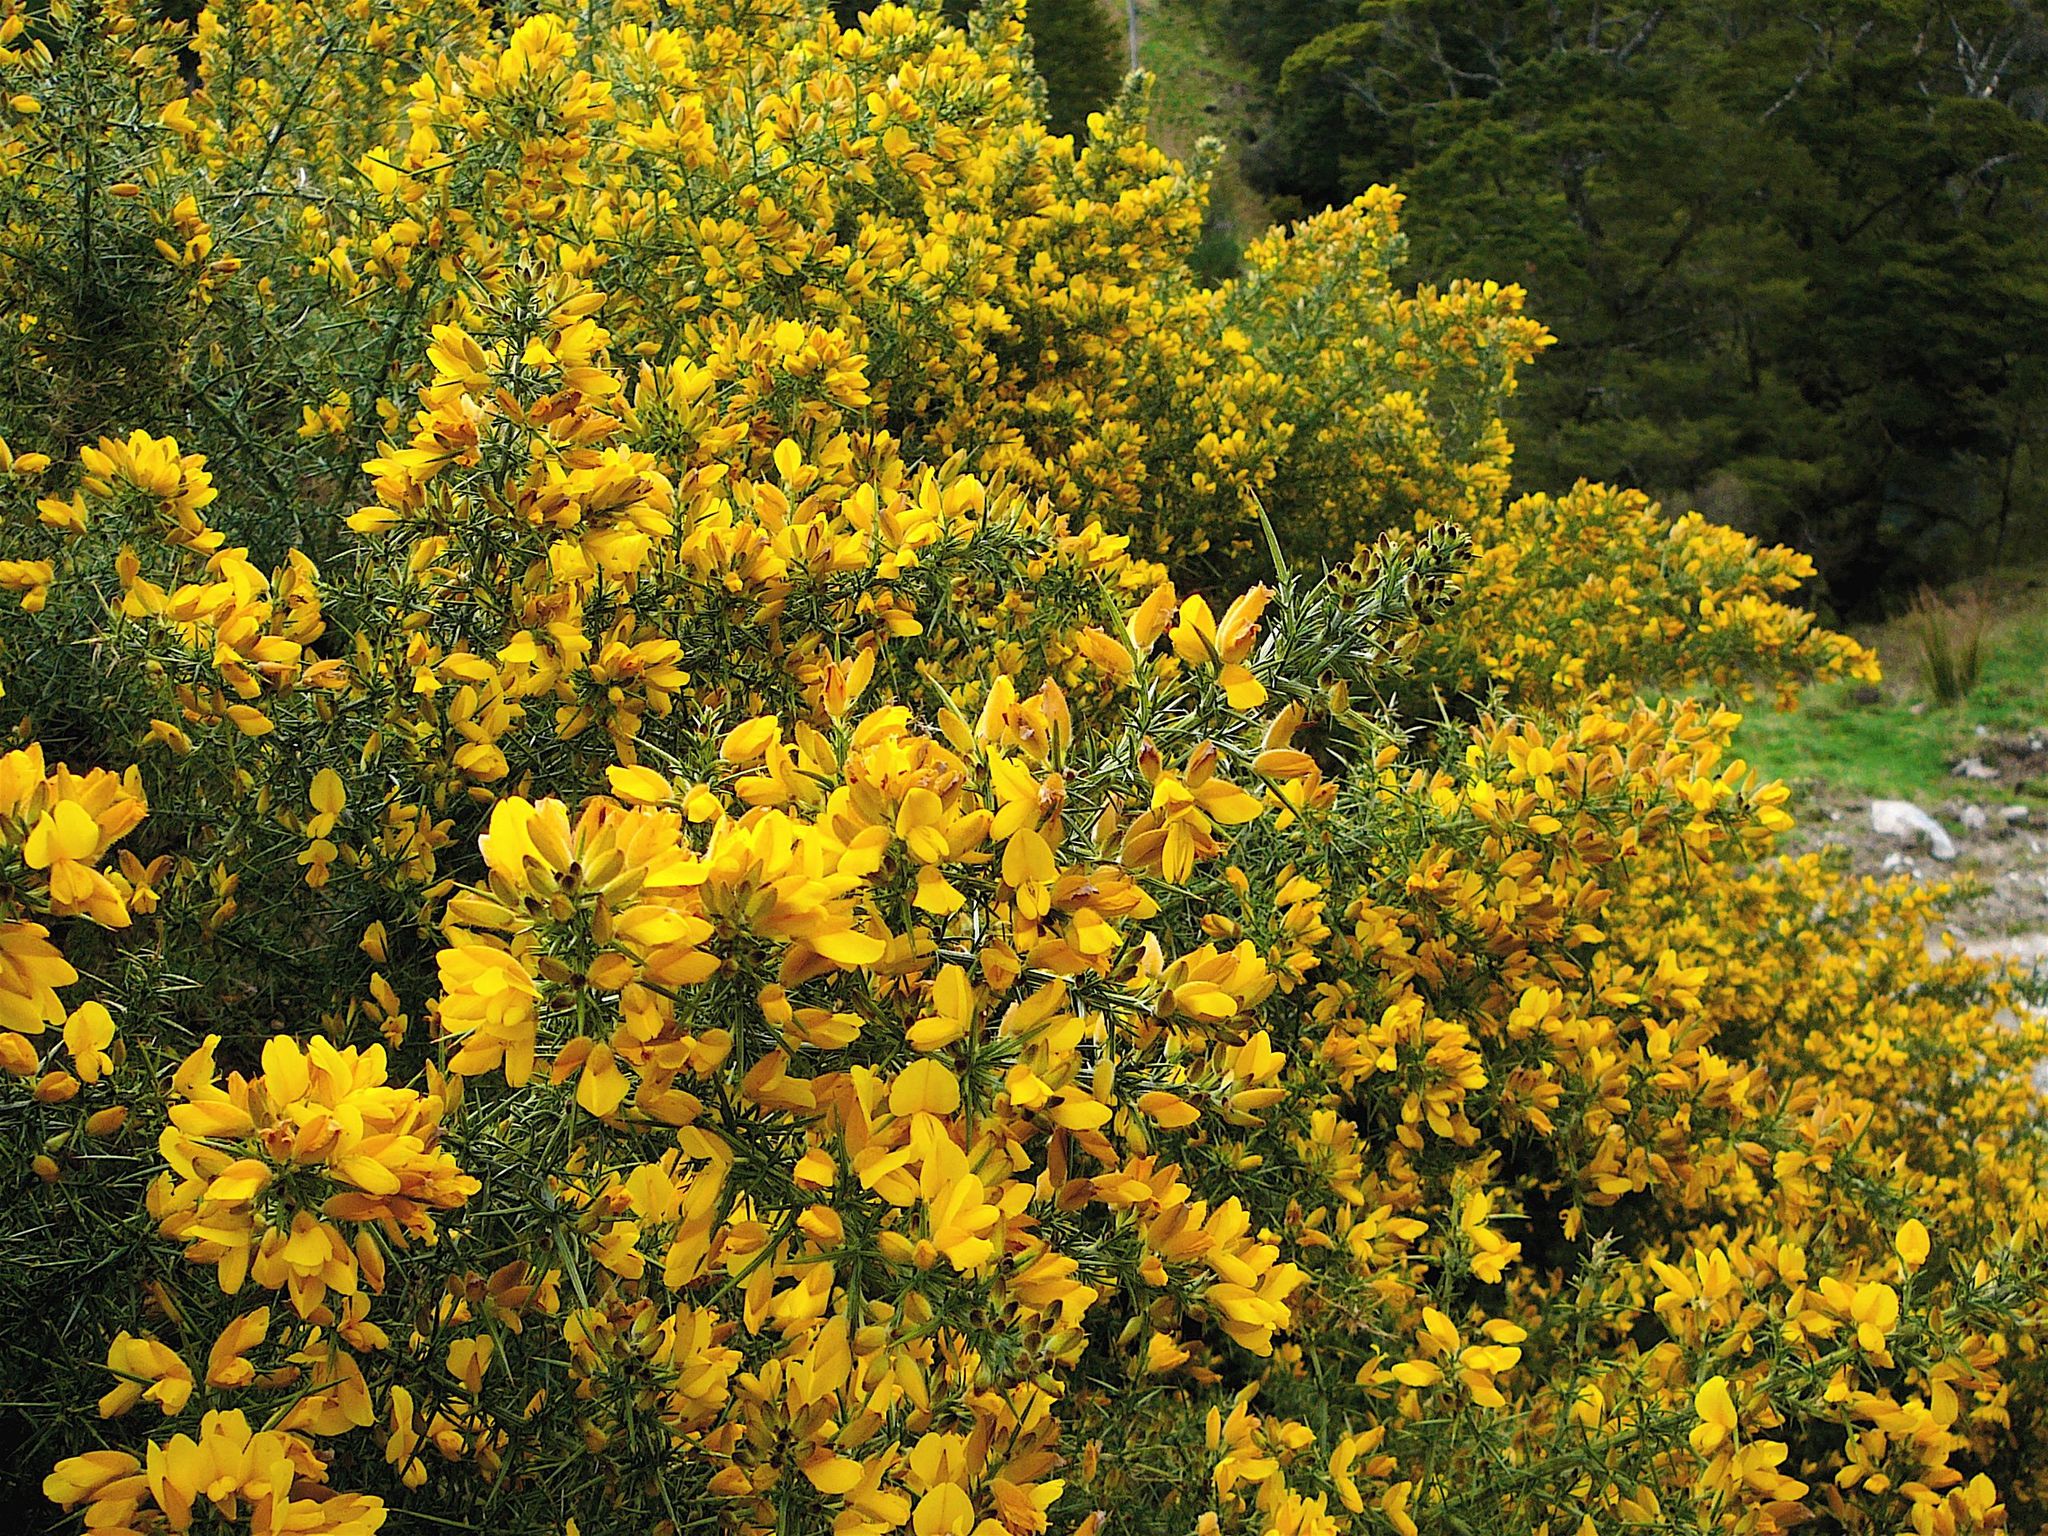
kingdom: Plantae
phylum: Tracheophyta
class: Magnoliopsida
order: Fabales
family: Fabaceae
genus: Ulex
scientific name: Ulex europaeus
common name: Common gorse
